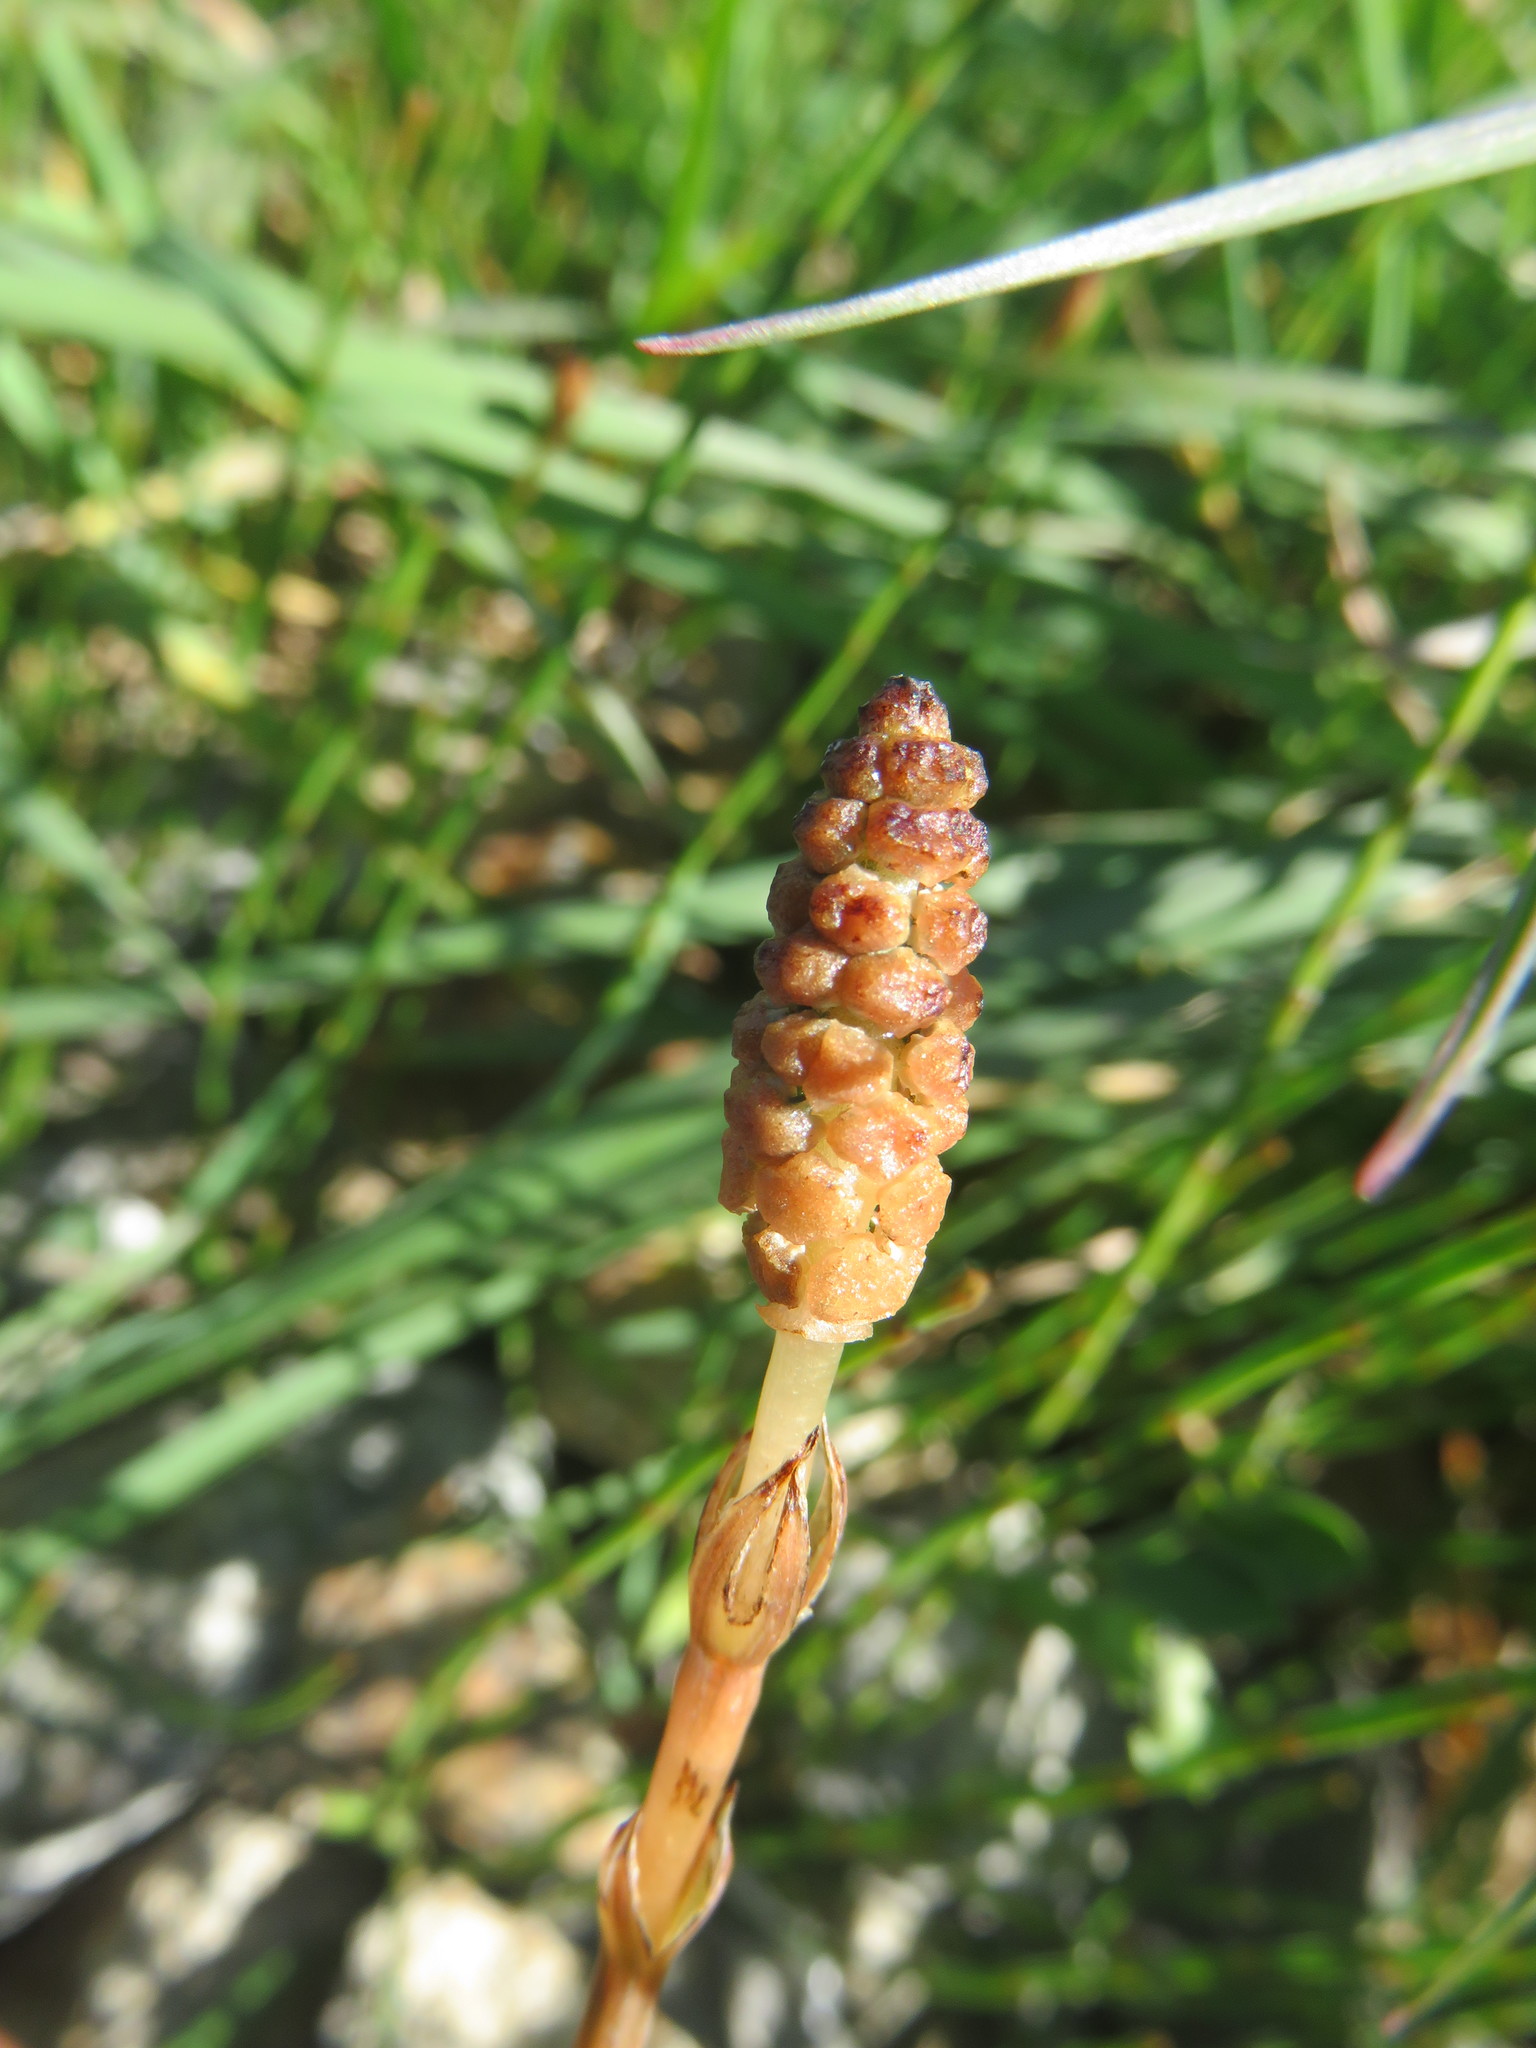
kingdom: Plantae
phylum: Tracheophyta
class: Polypodiopsida
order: Equisetales
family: Equisetaceae
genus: Equisetum
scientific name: Equisetum bogotense
